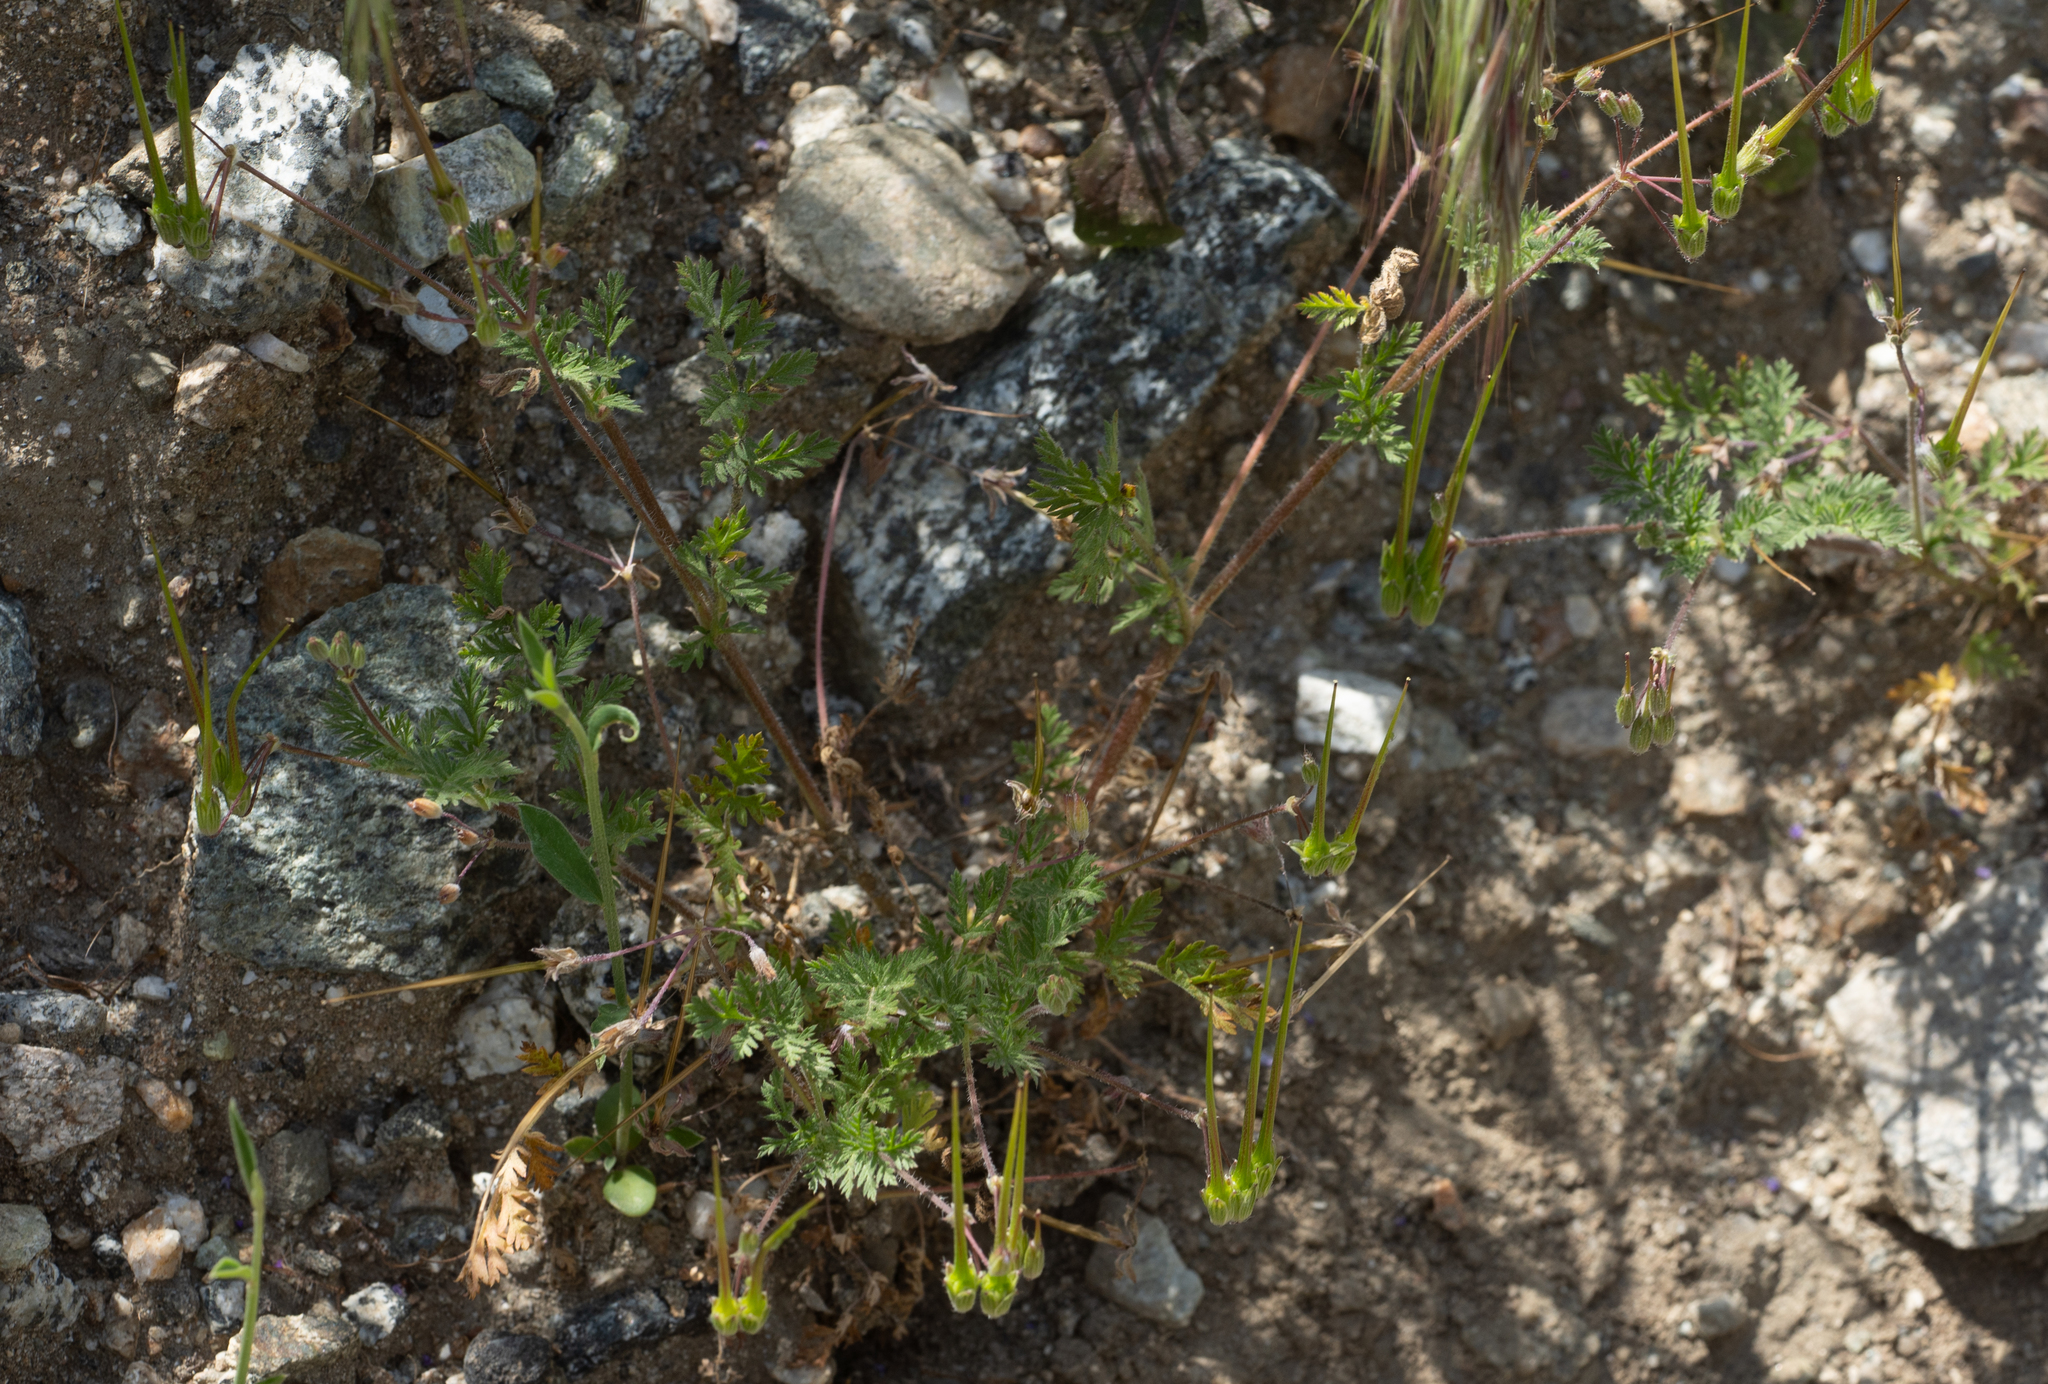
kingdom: Plantae
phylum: Tracheophyta
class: Magnoliopsida
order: Geraniales
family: Geraniaceae
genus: Erodium
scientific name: Erodium cicutarium
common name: Common stork's-bill
